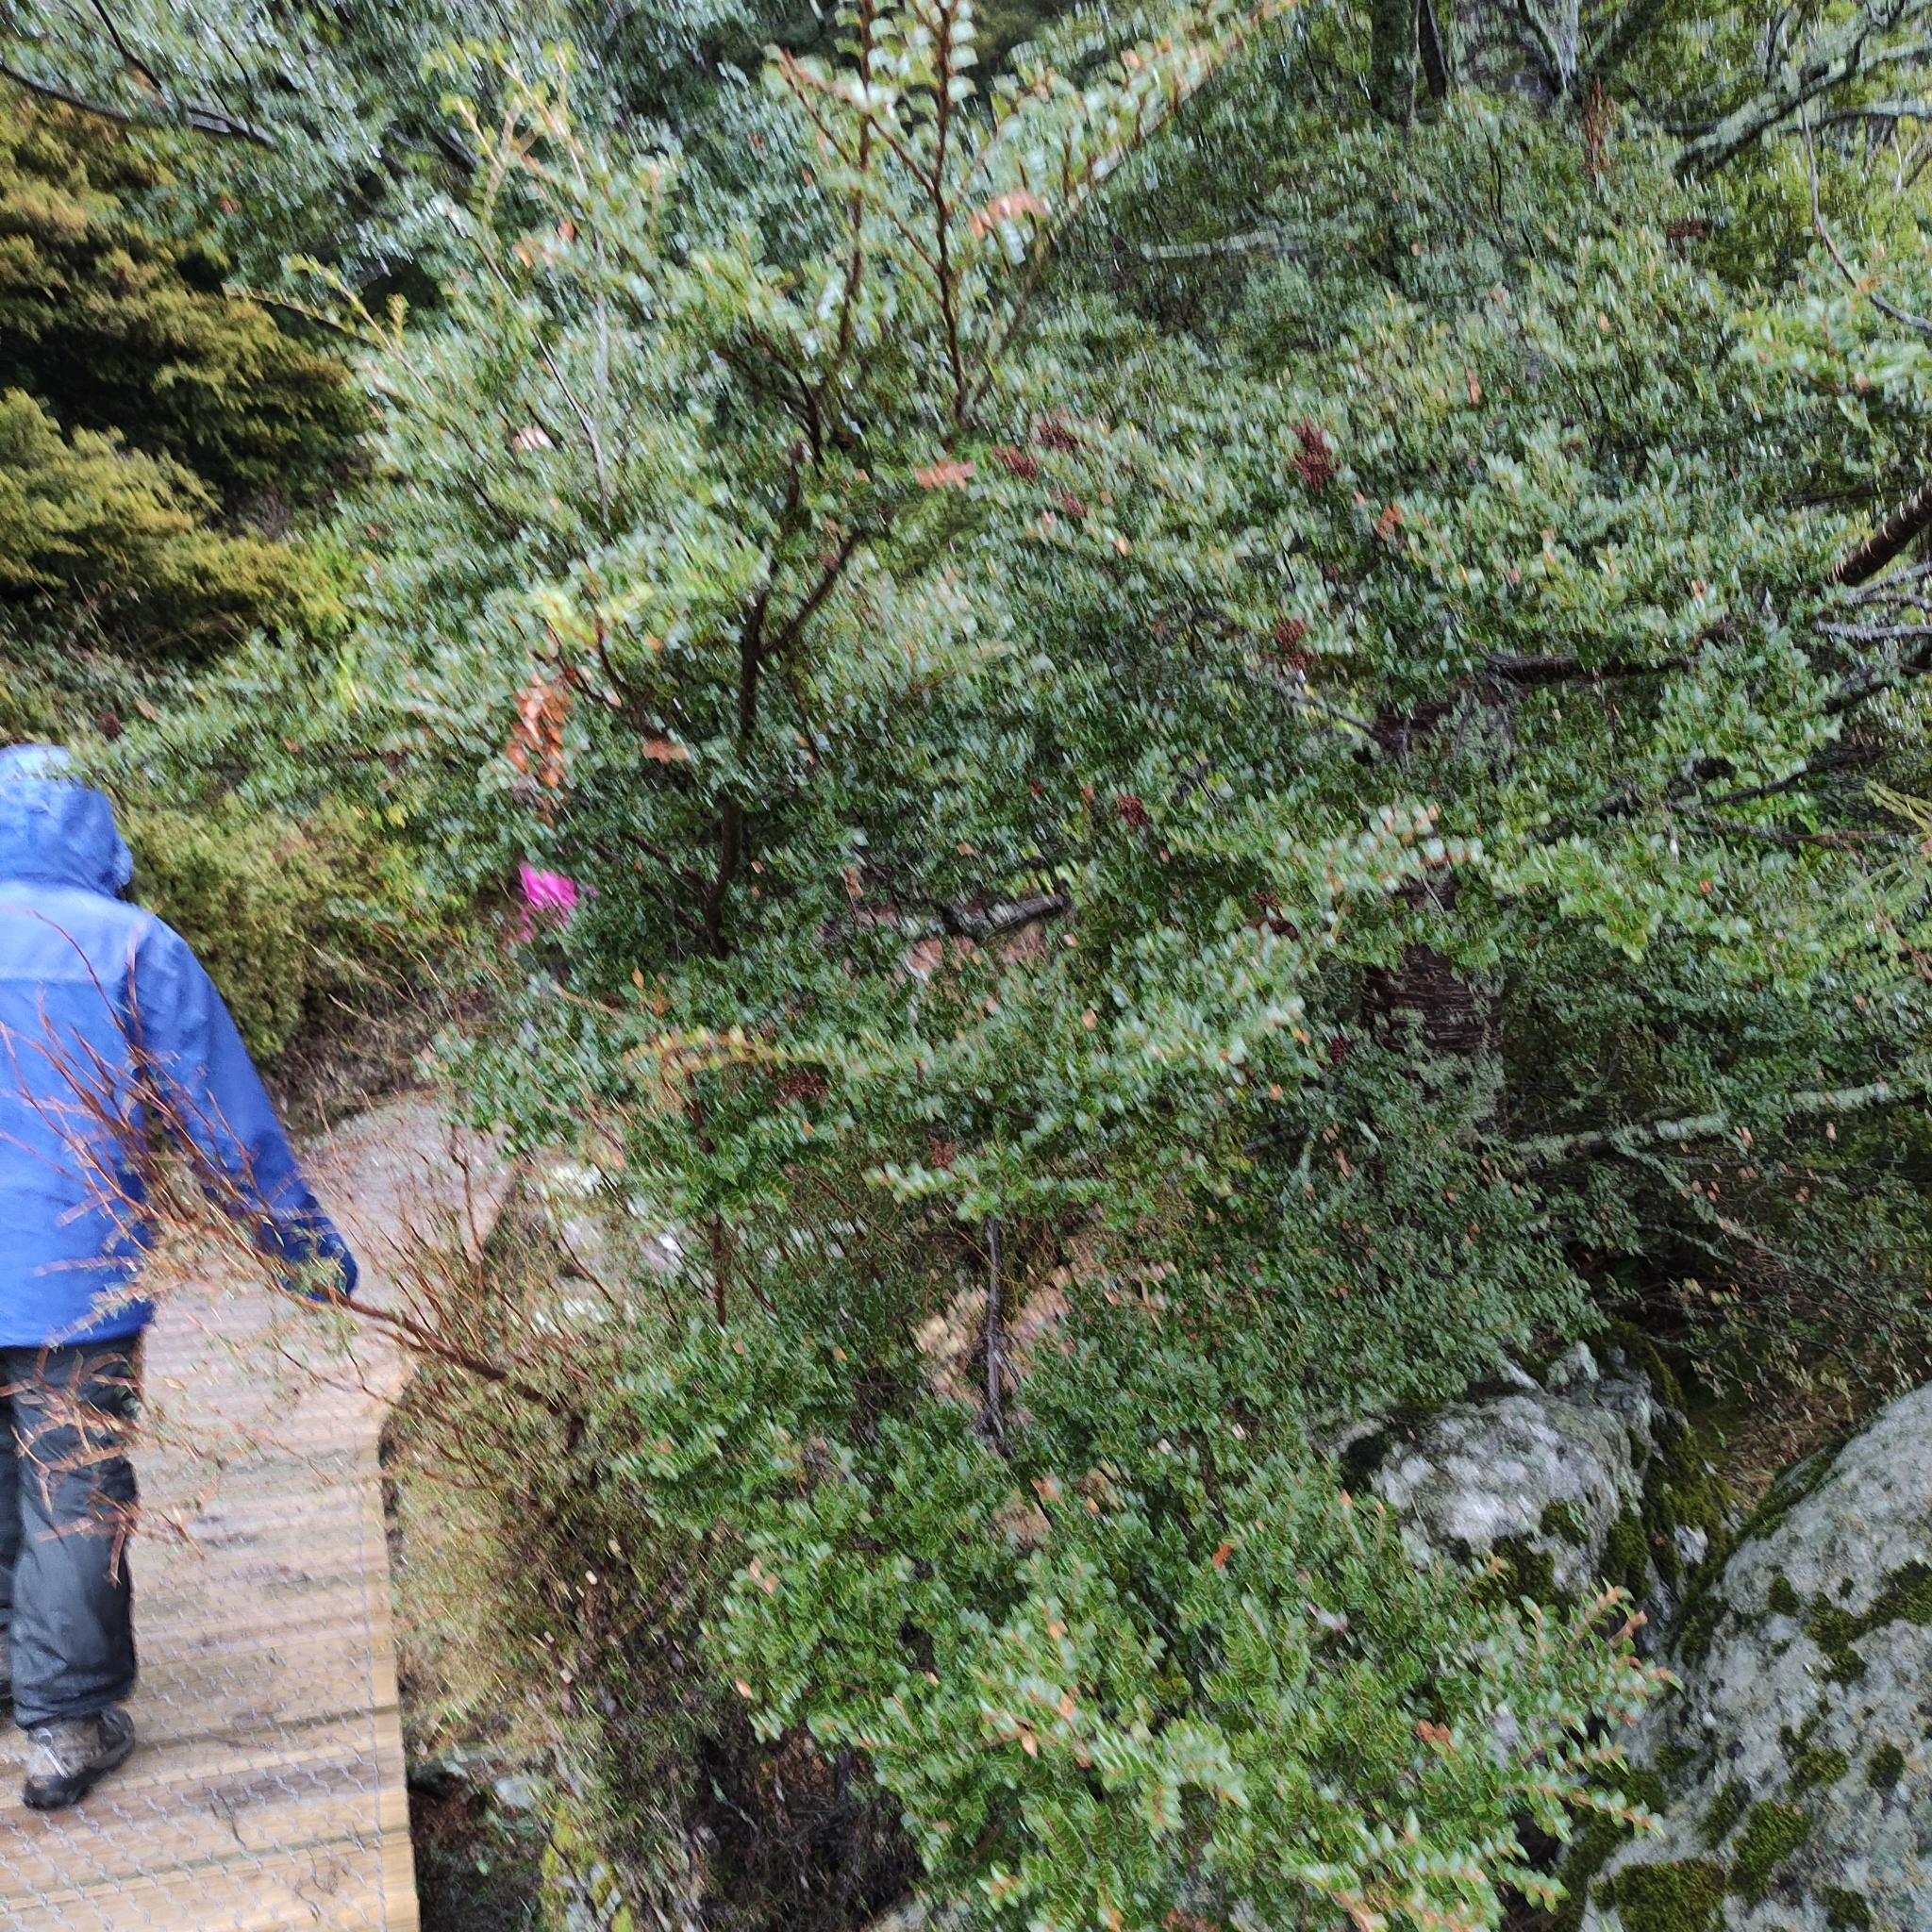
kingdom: Plantae
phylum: Tracheophyta
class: Magnoliopsida
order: Fagales
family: Nothofagaceae
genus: Nothofagus
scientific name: Nothofagus menziesii
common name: Silver beech
